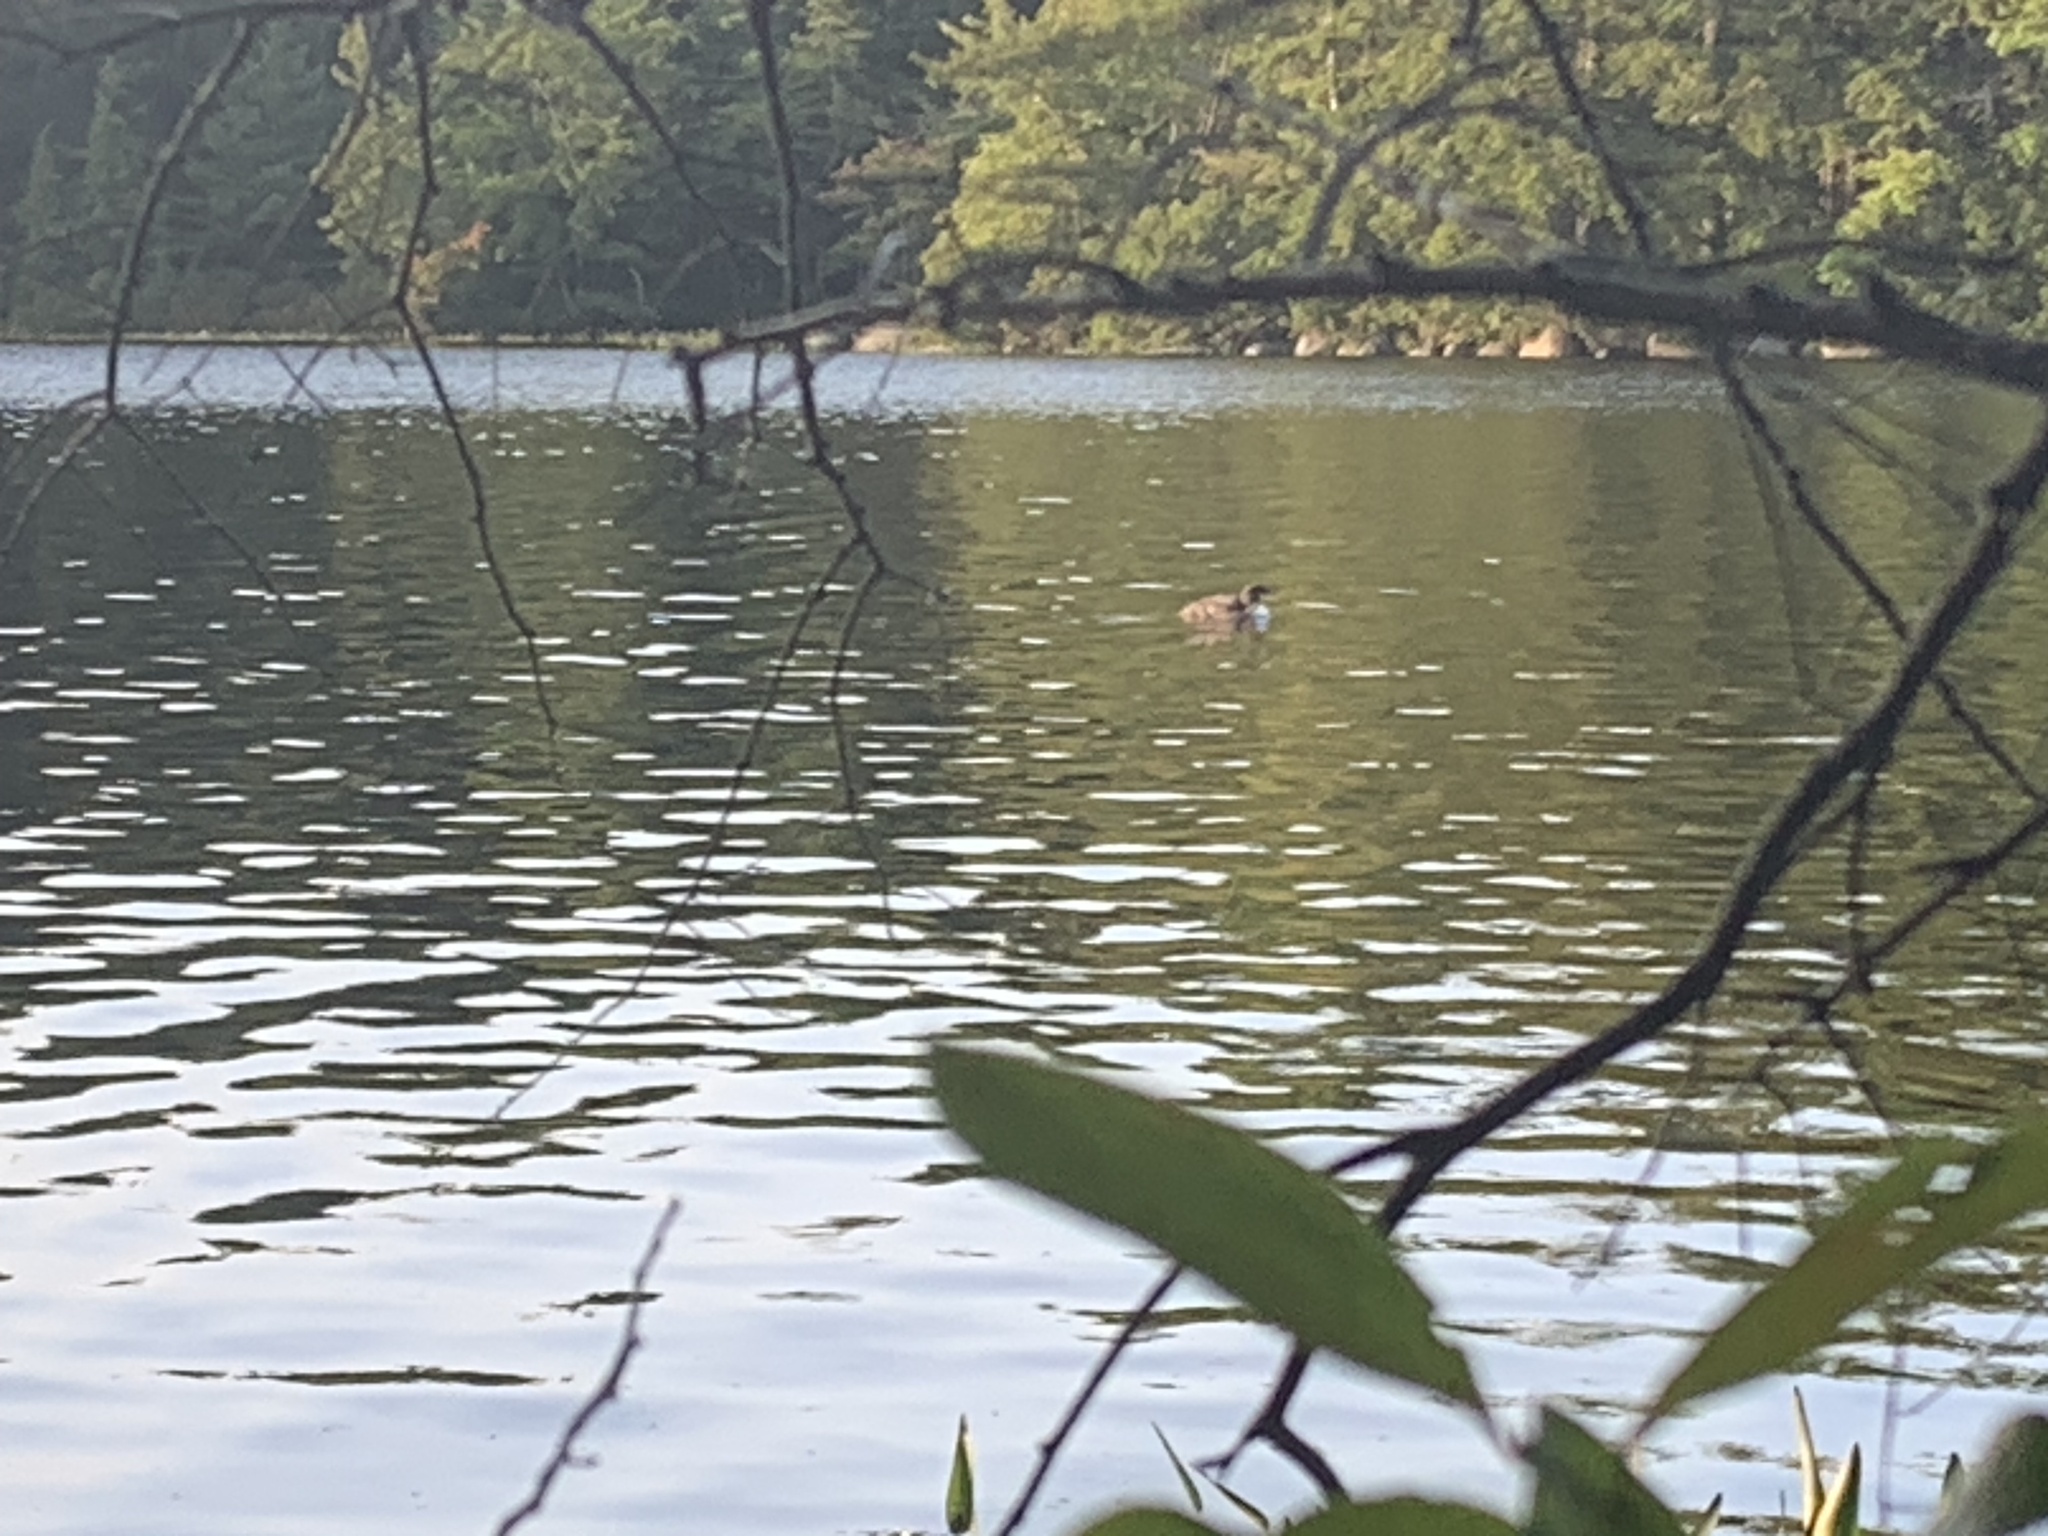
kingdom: Animalia
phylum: Chordata
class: Aves
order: Gaviiformes
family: Gaviidae
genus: Gavia
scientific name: Gavia immer
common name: Common loon
